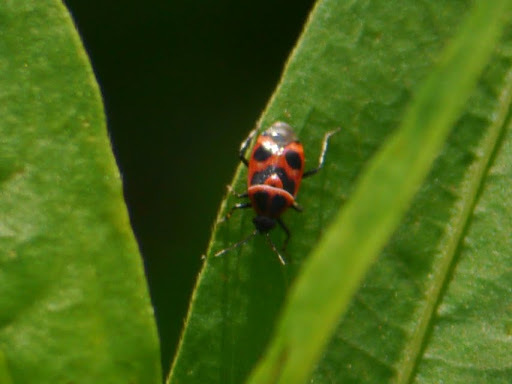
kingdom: Animalia
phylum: Arthropoda
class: Insecta
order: Hemiptera
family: Miridae
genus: Deraeocoris
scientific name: Deraeocoris histrio
